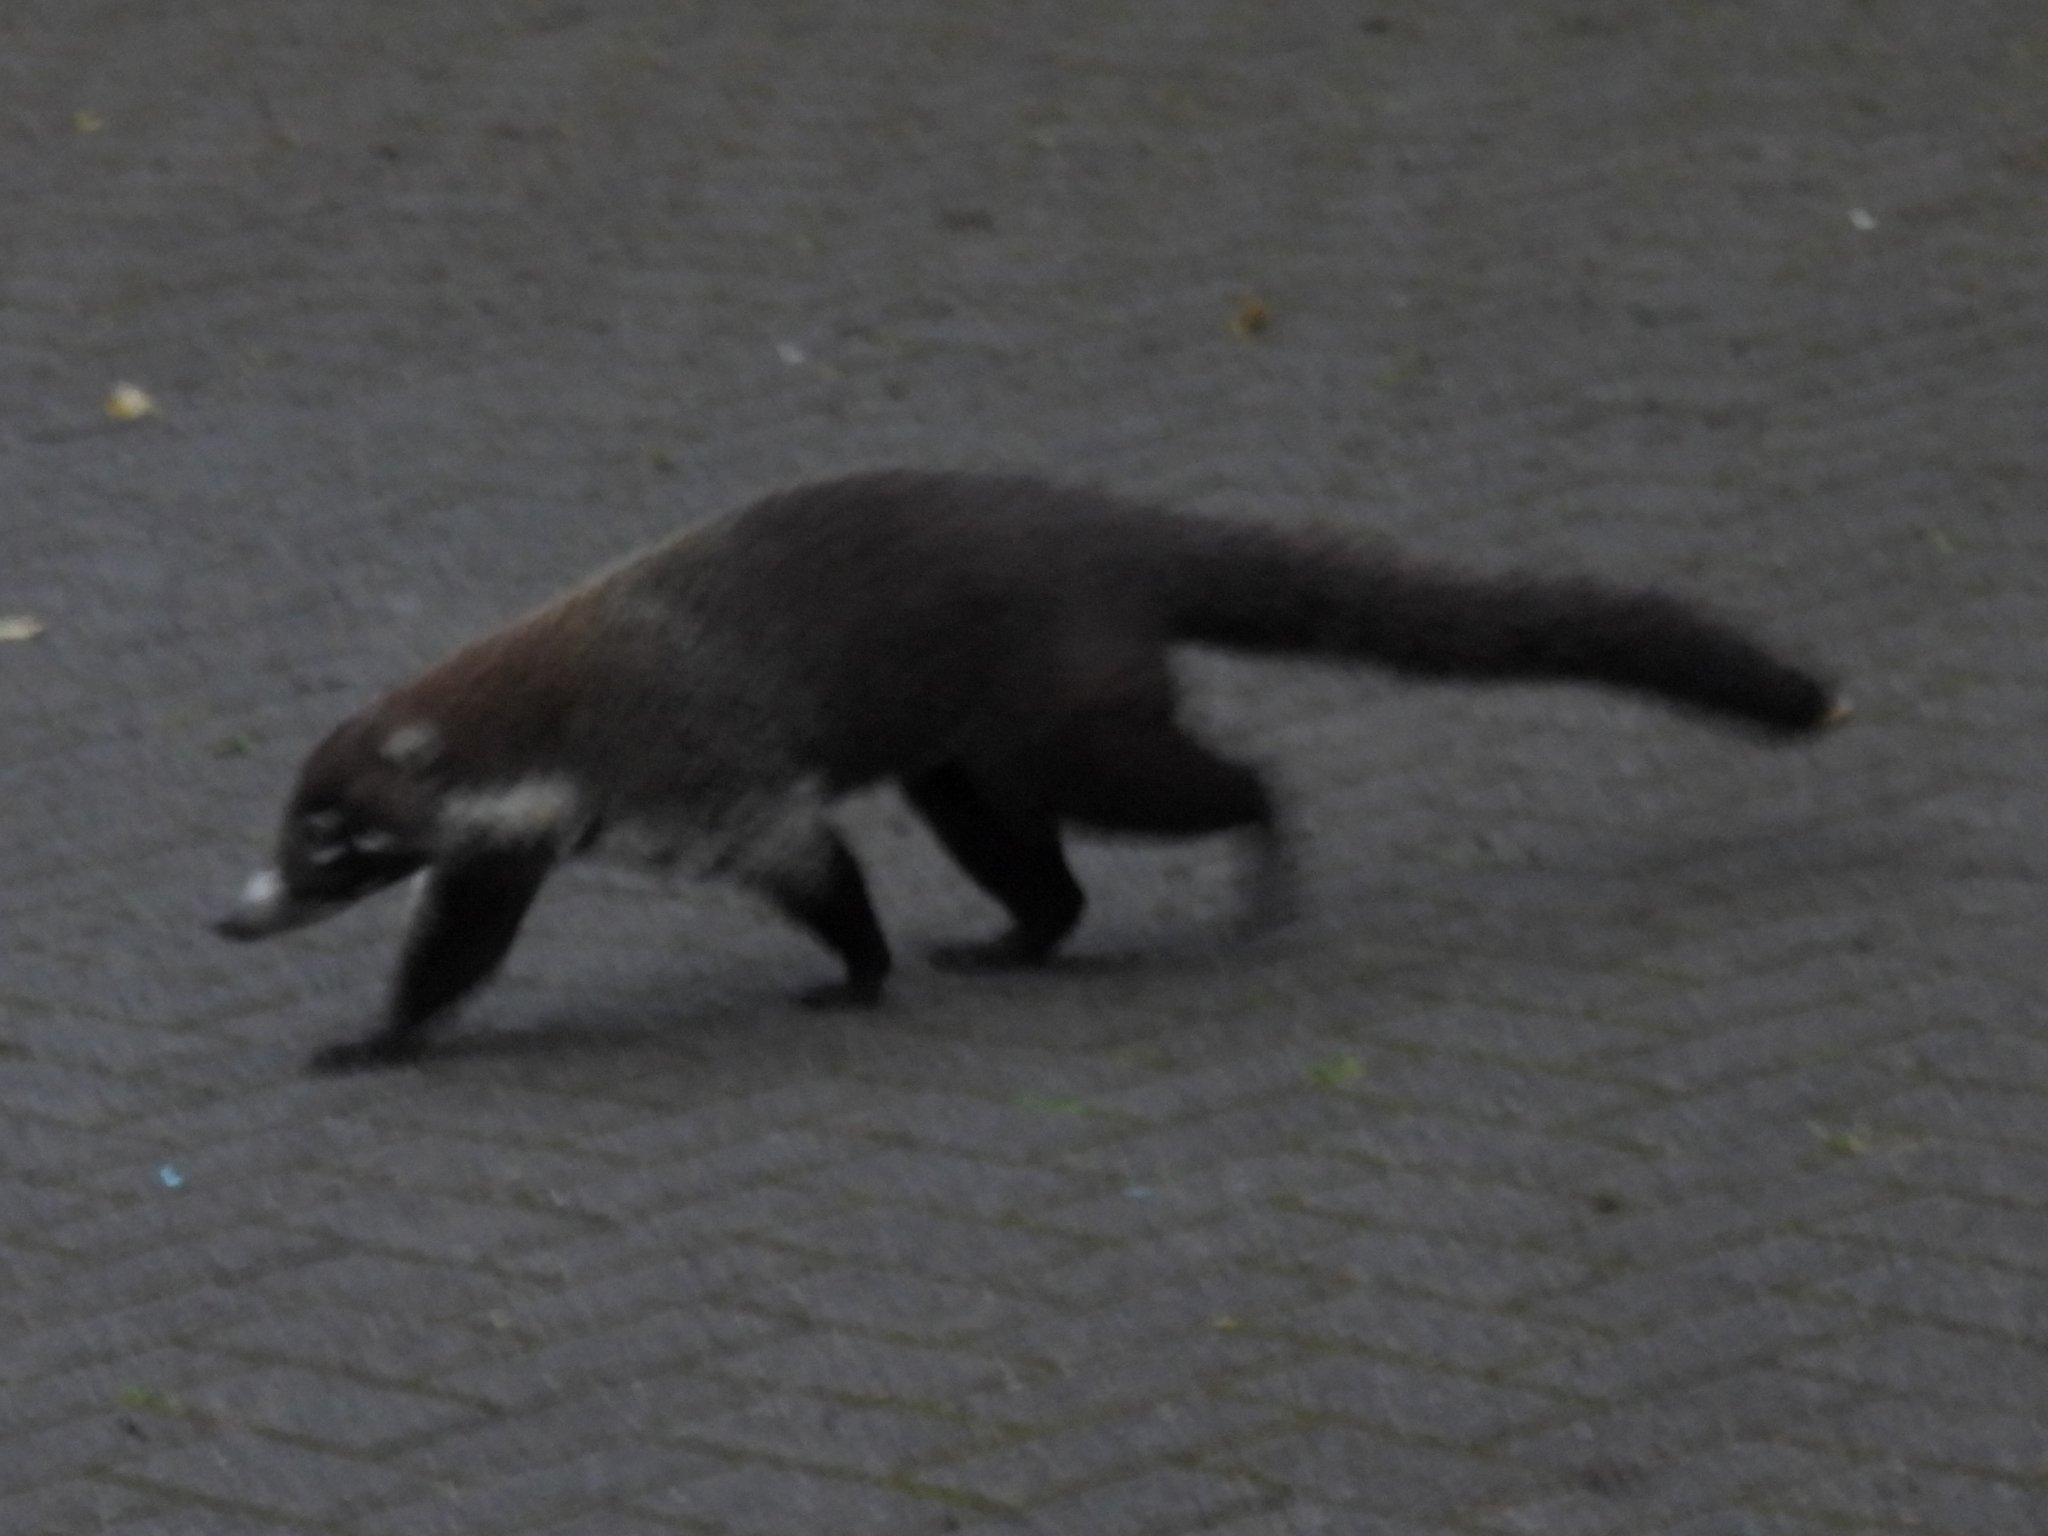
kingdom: Animalia
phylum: Chordata
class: Mammalia
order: Carnivora
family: Procyonidae
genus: Nasua
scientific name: Nasua narica
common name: White-nosed coati
